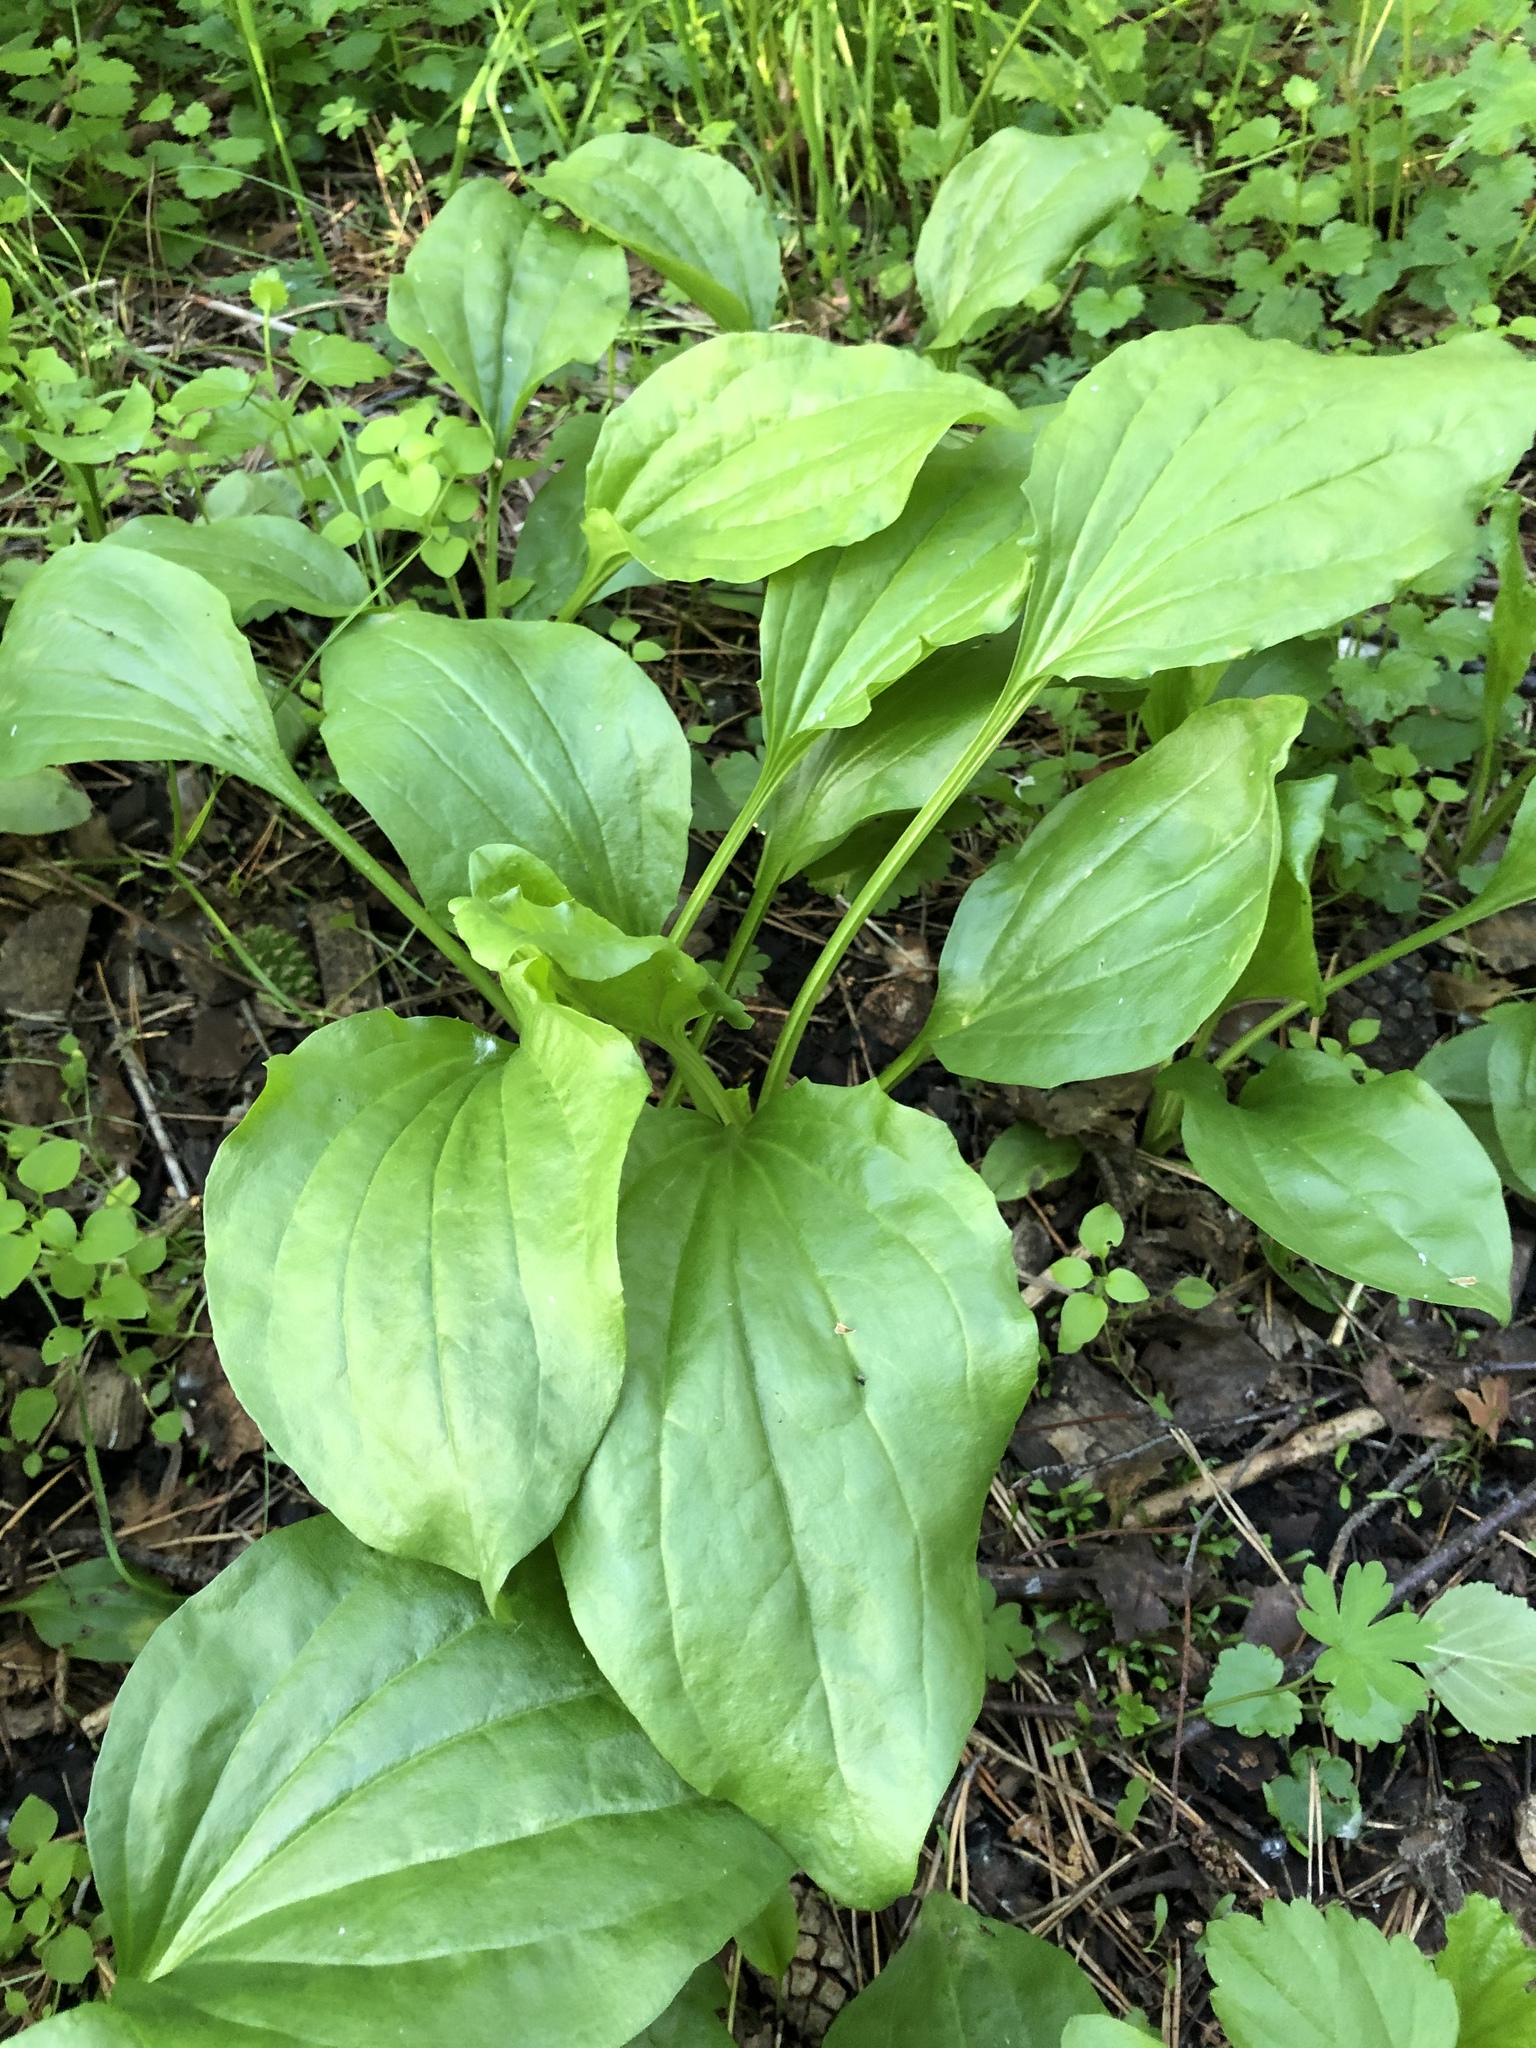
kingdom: Plantae
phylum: Tracheophyta
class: Magnoliopsida
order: Lamiales
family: Plantaginaceae
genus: Plantago
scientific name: Plantago major
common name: Common plantain
